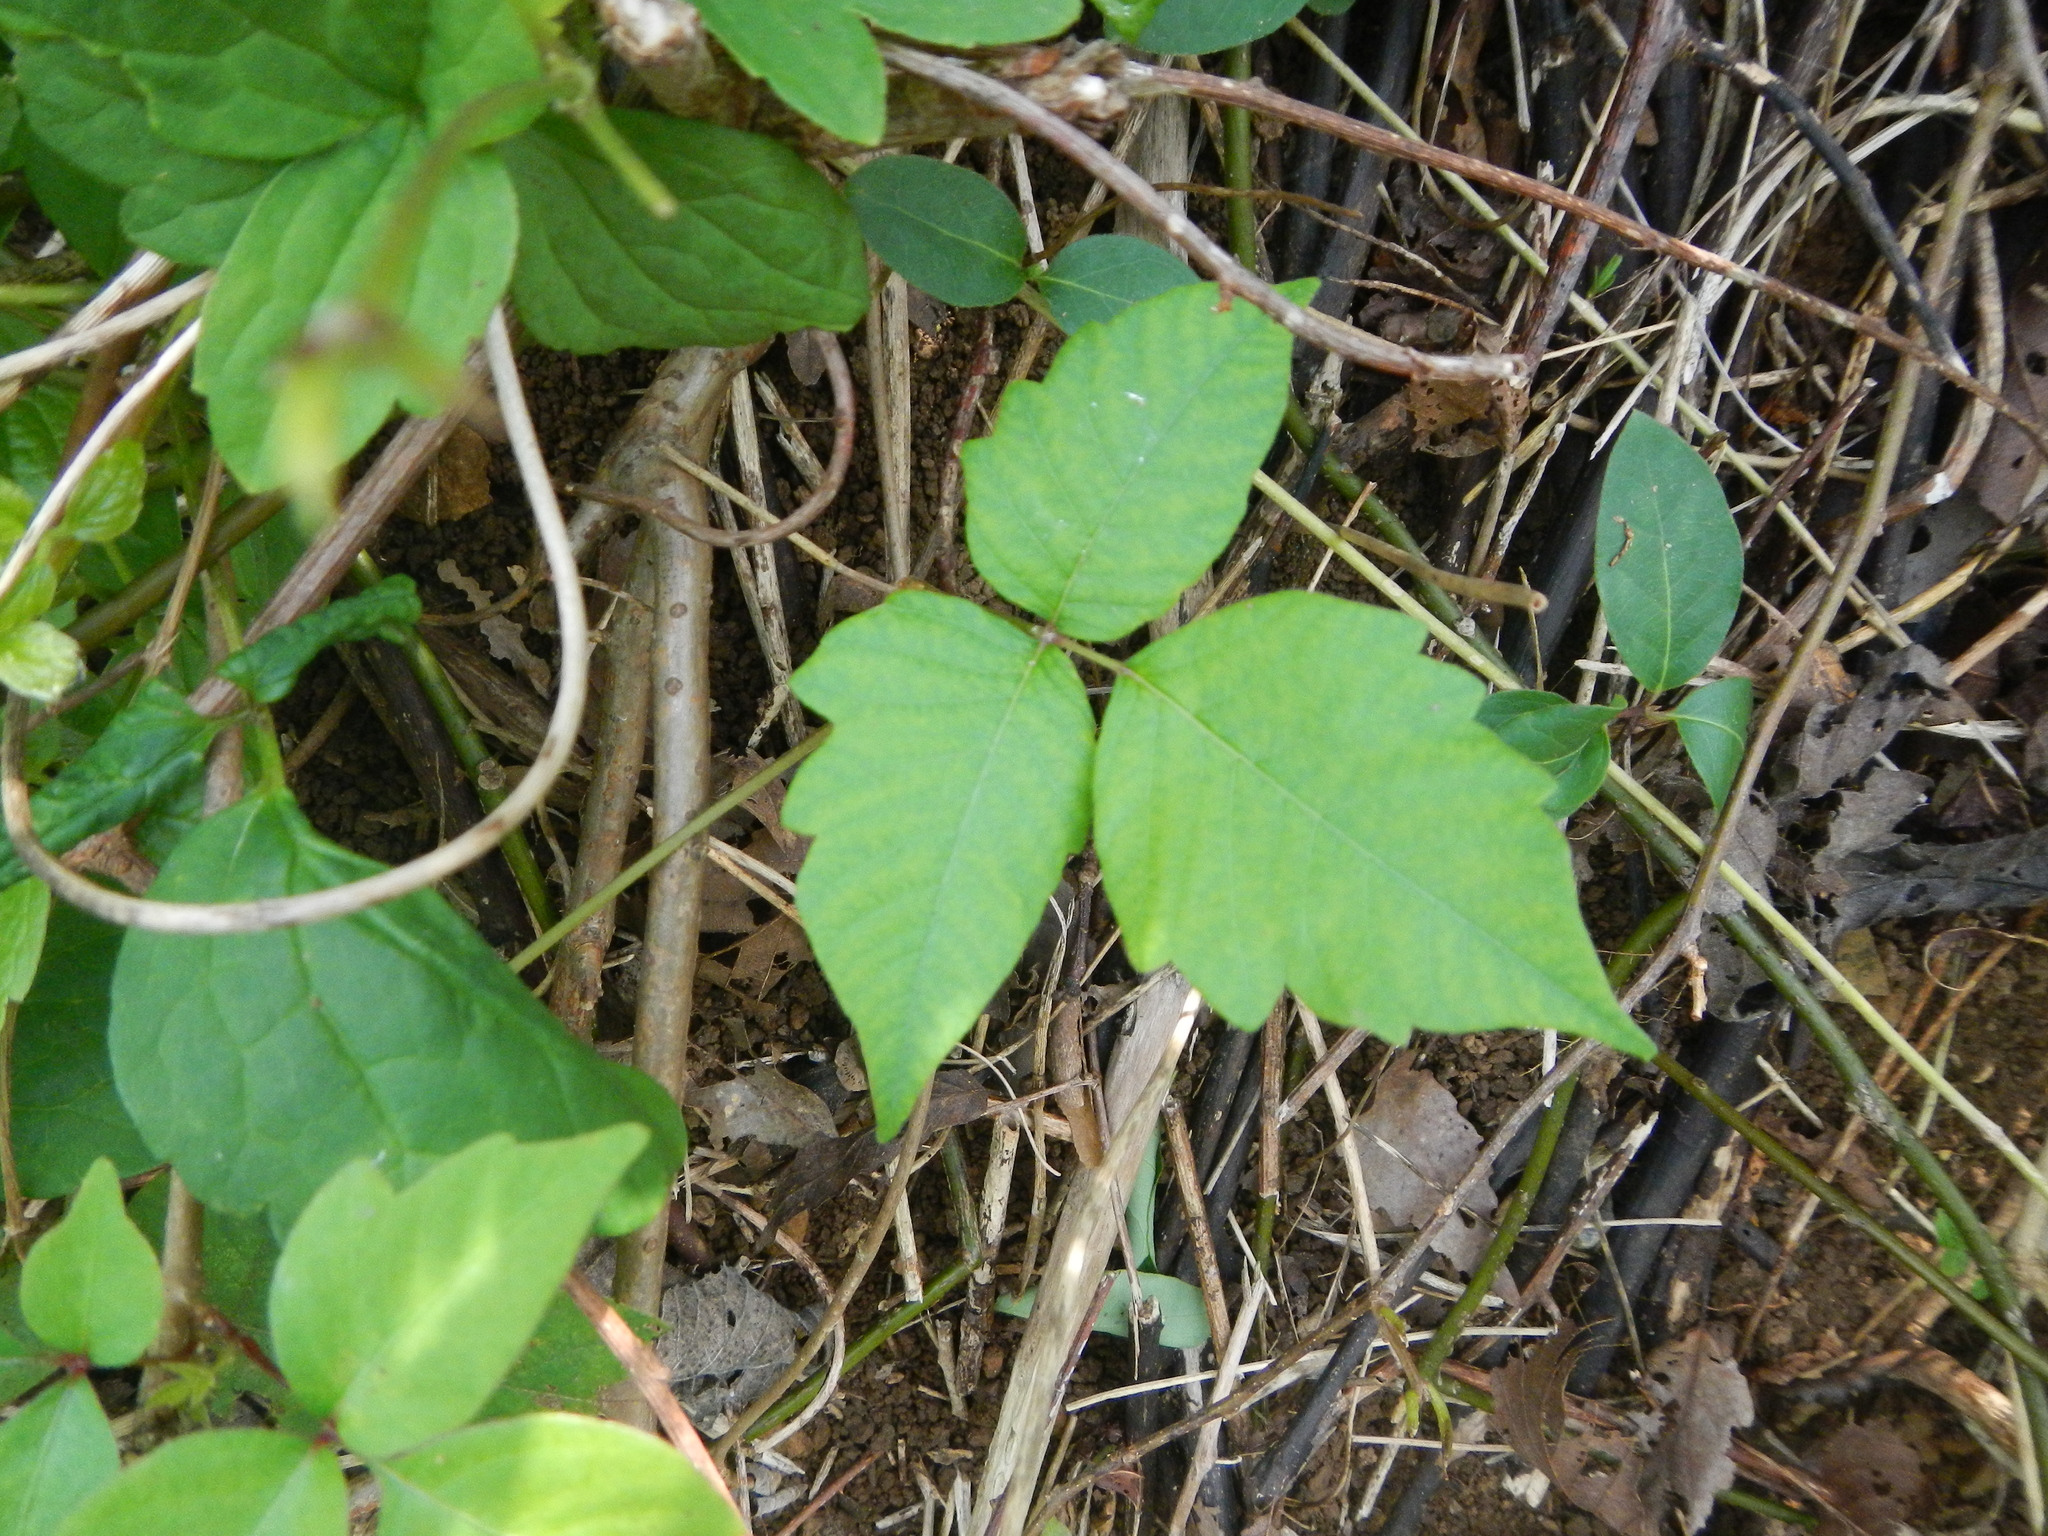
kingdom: Plantae
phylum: Tracheophyta
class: Magnoliopsida
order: Sapindales
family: Anacardiaceae
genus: Toxicodendron
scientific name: Toxicodendron radicans
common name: Poison ivy
